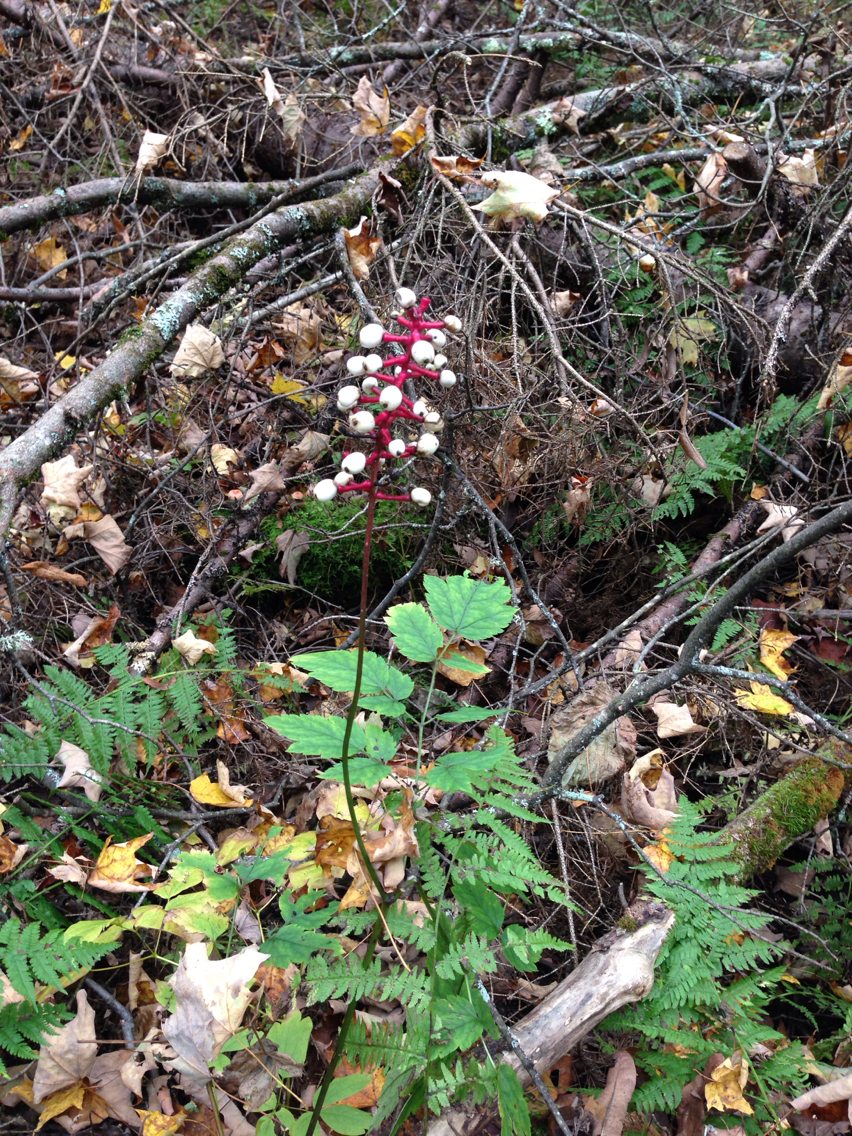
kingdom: Plantae
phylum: Tracheophyta
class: Magnoliopsida
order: Ranunculales
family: Ranunculaceae
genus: Actaea
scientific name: Actaea pachypoda
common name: Doll's-eyes
